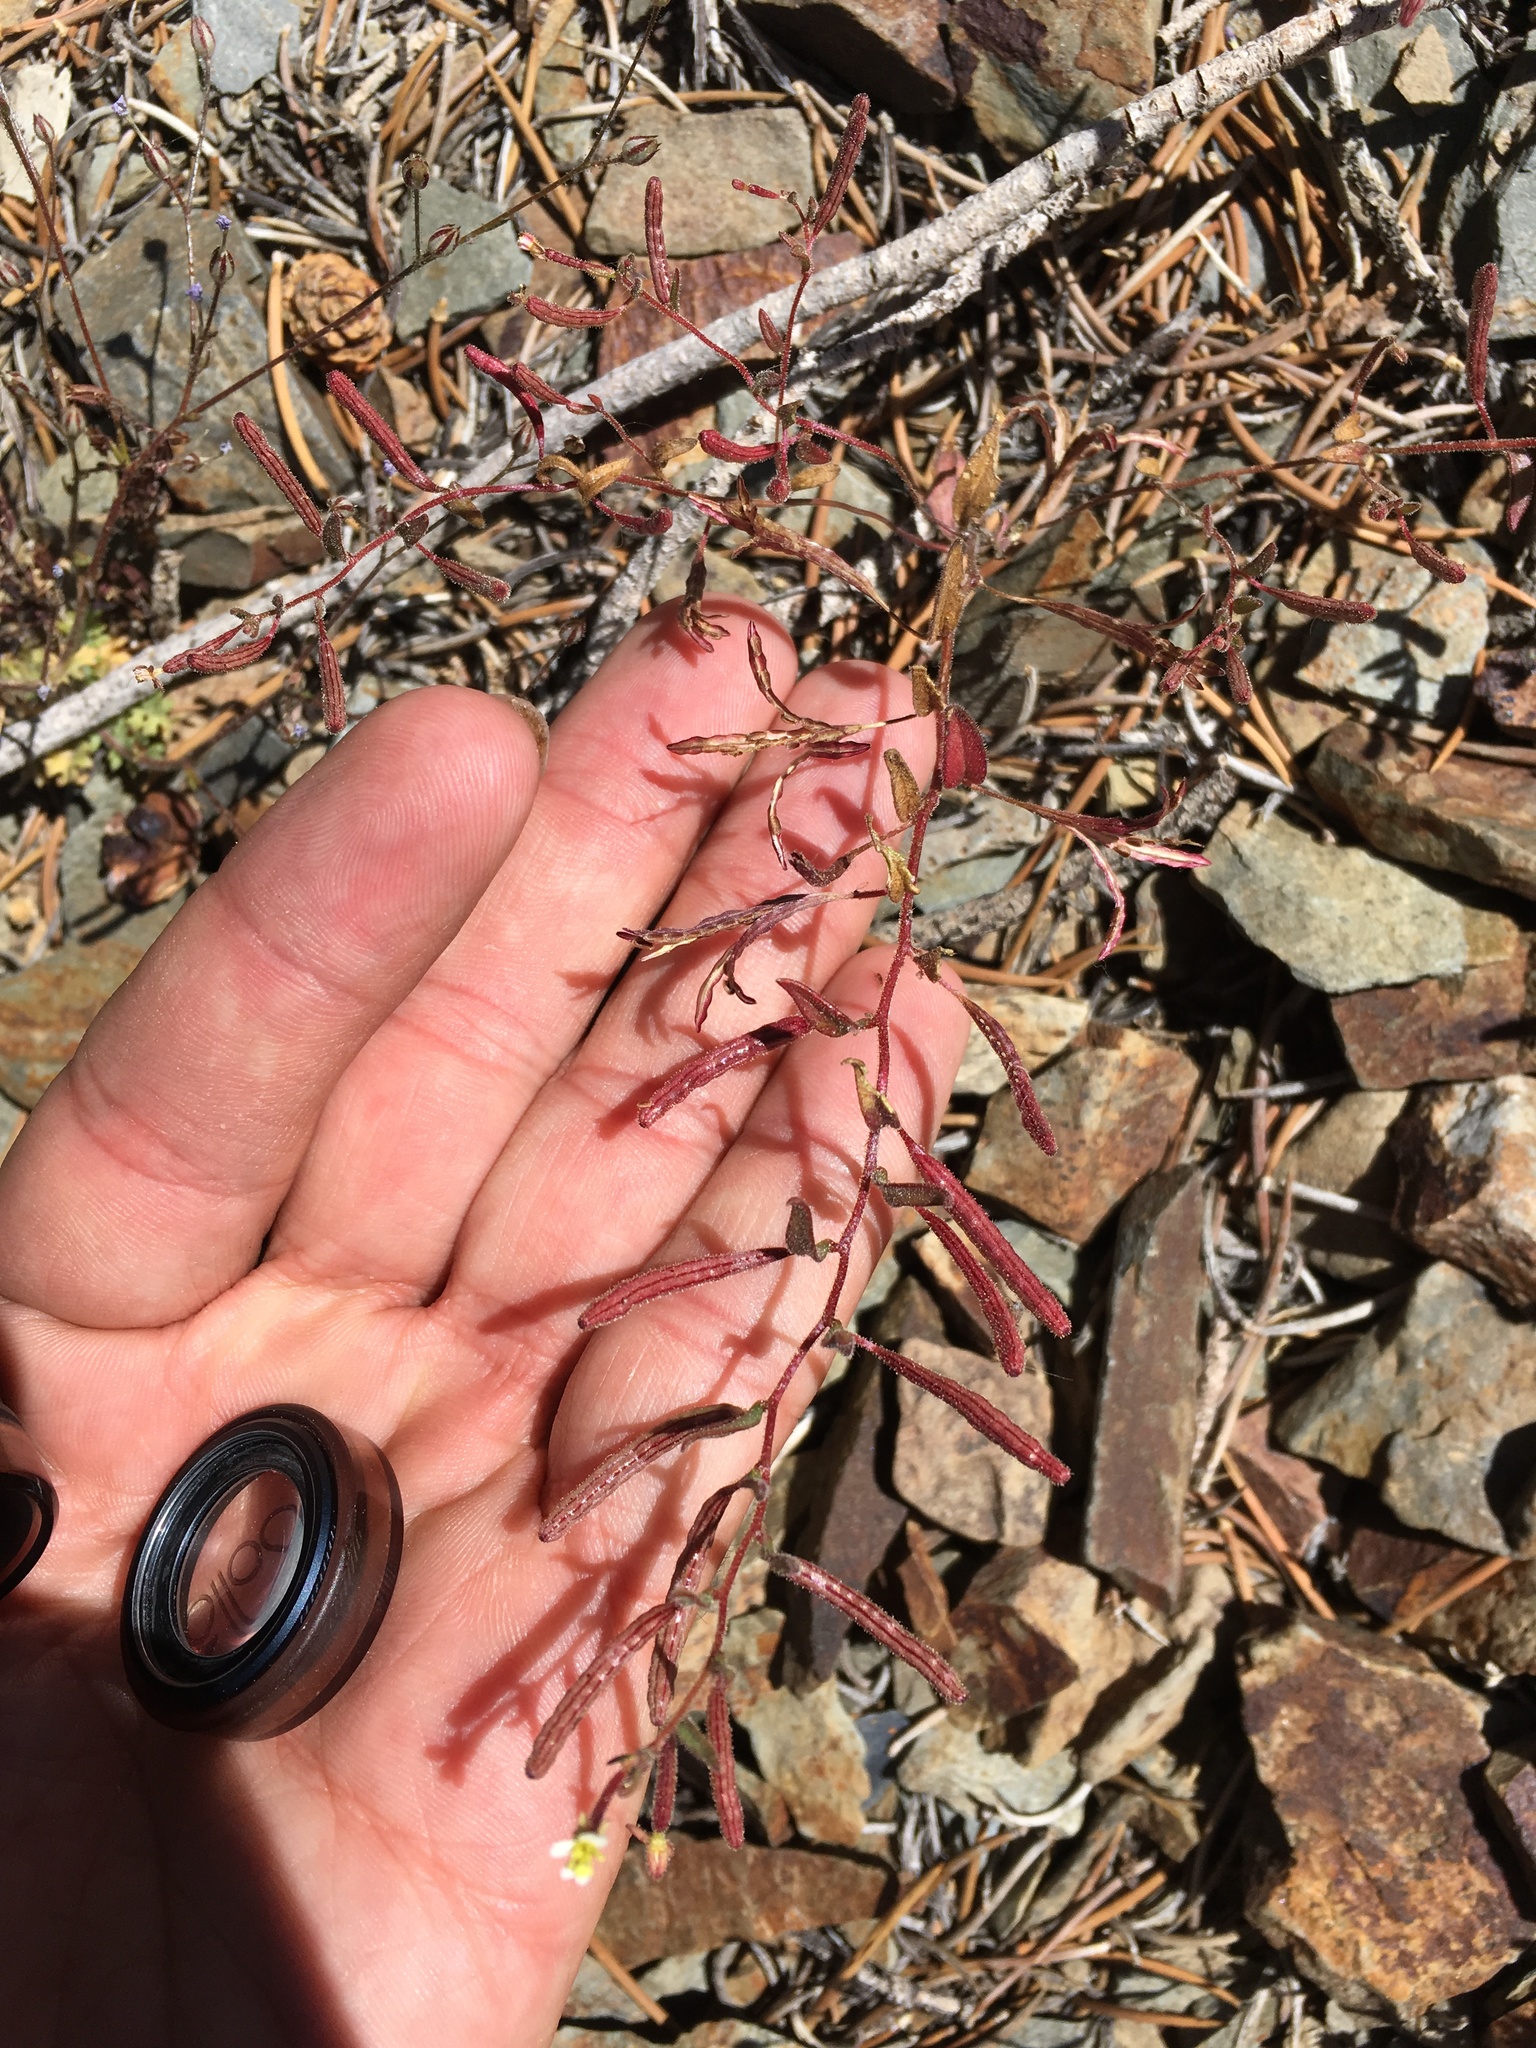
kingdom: Plantae
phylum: Tracheophyta
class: Magnoliopsida
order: Myrtales
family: Onagraceae
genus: Chylismiella
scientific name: Chylismiella pterosperma
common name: Wingfruit suncup
